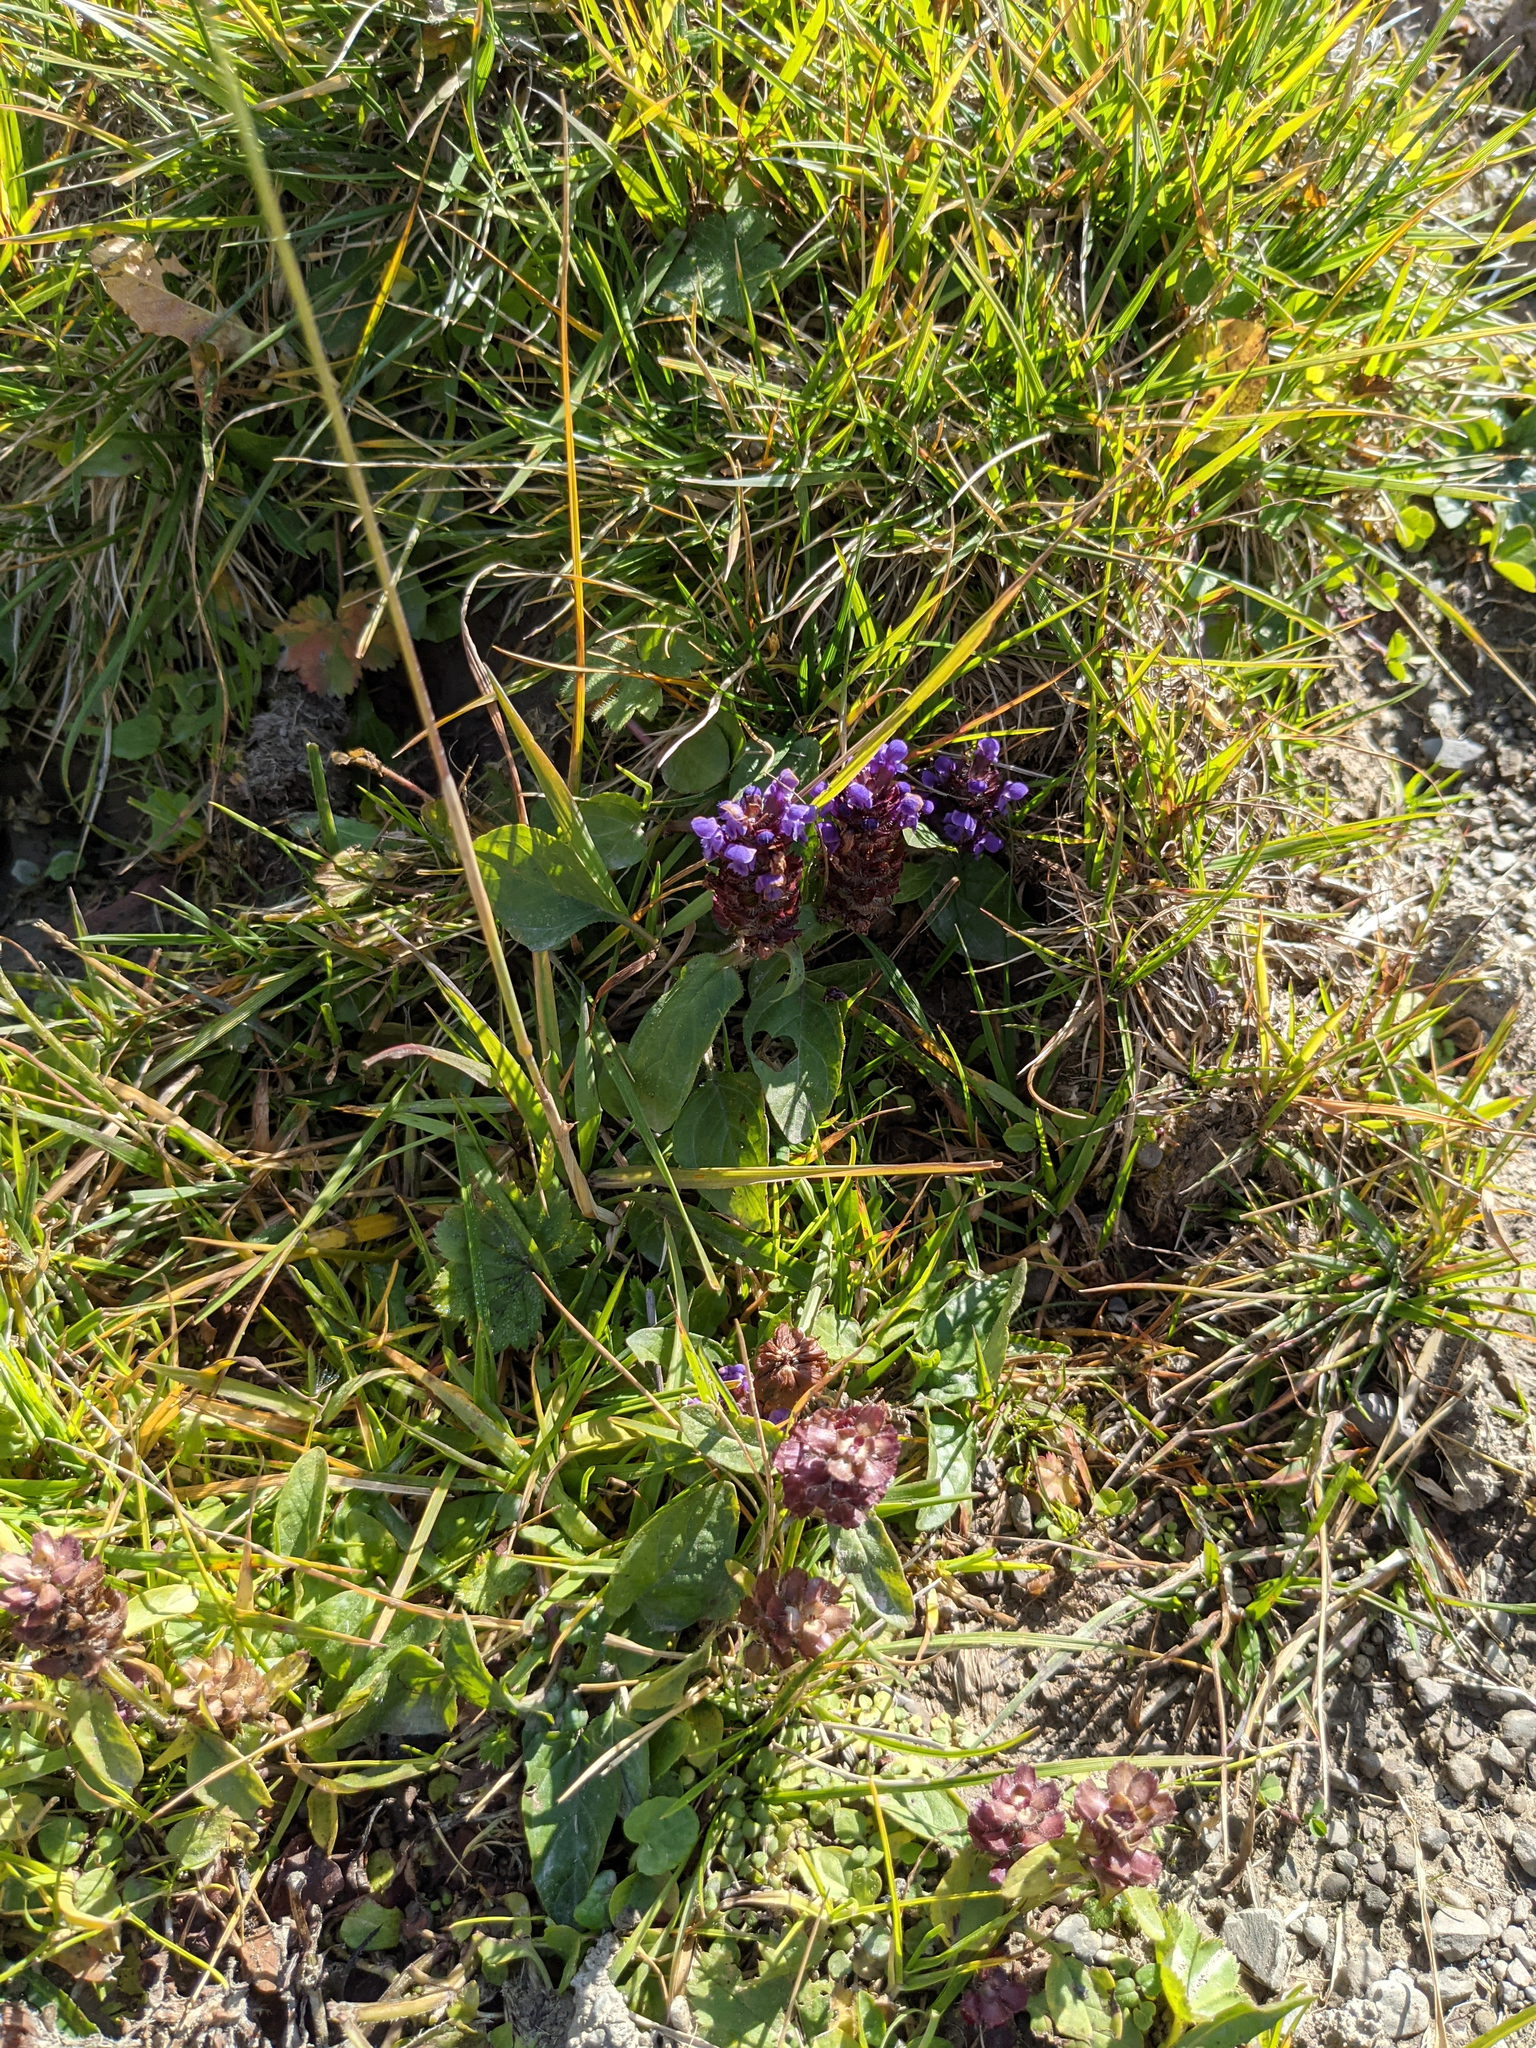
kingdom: Plantae
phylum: Tracheophyta
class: Magnoliopsida
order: Lamiales
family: Lamiaceae
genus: Prunella
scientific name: Prunella vulgaris
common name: Heal-all
